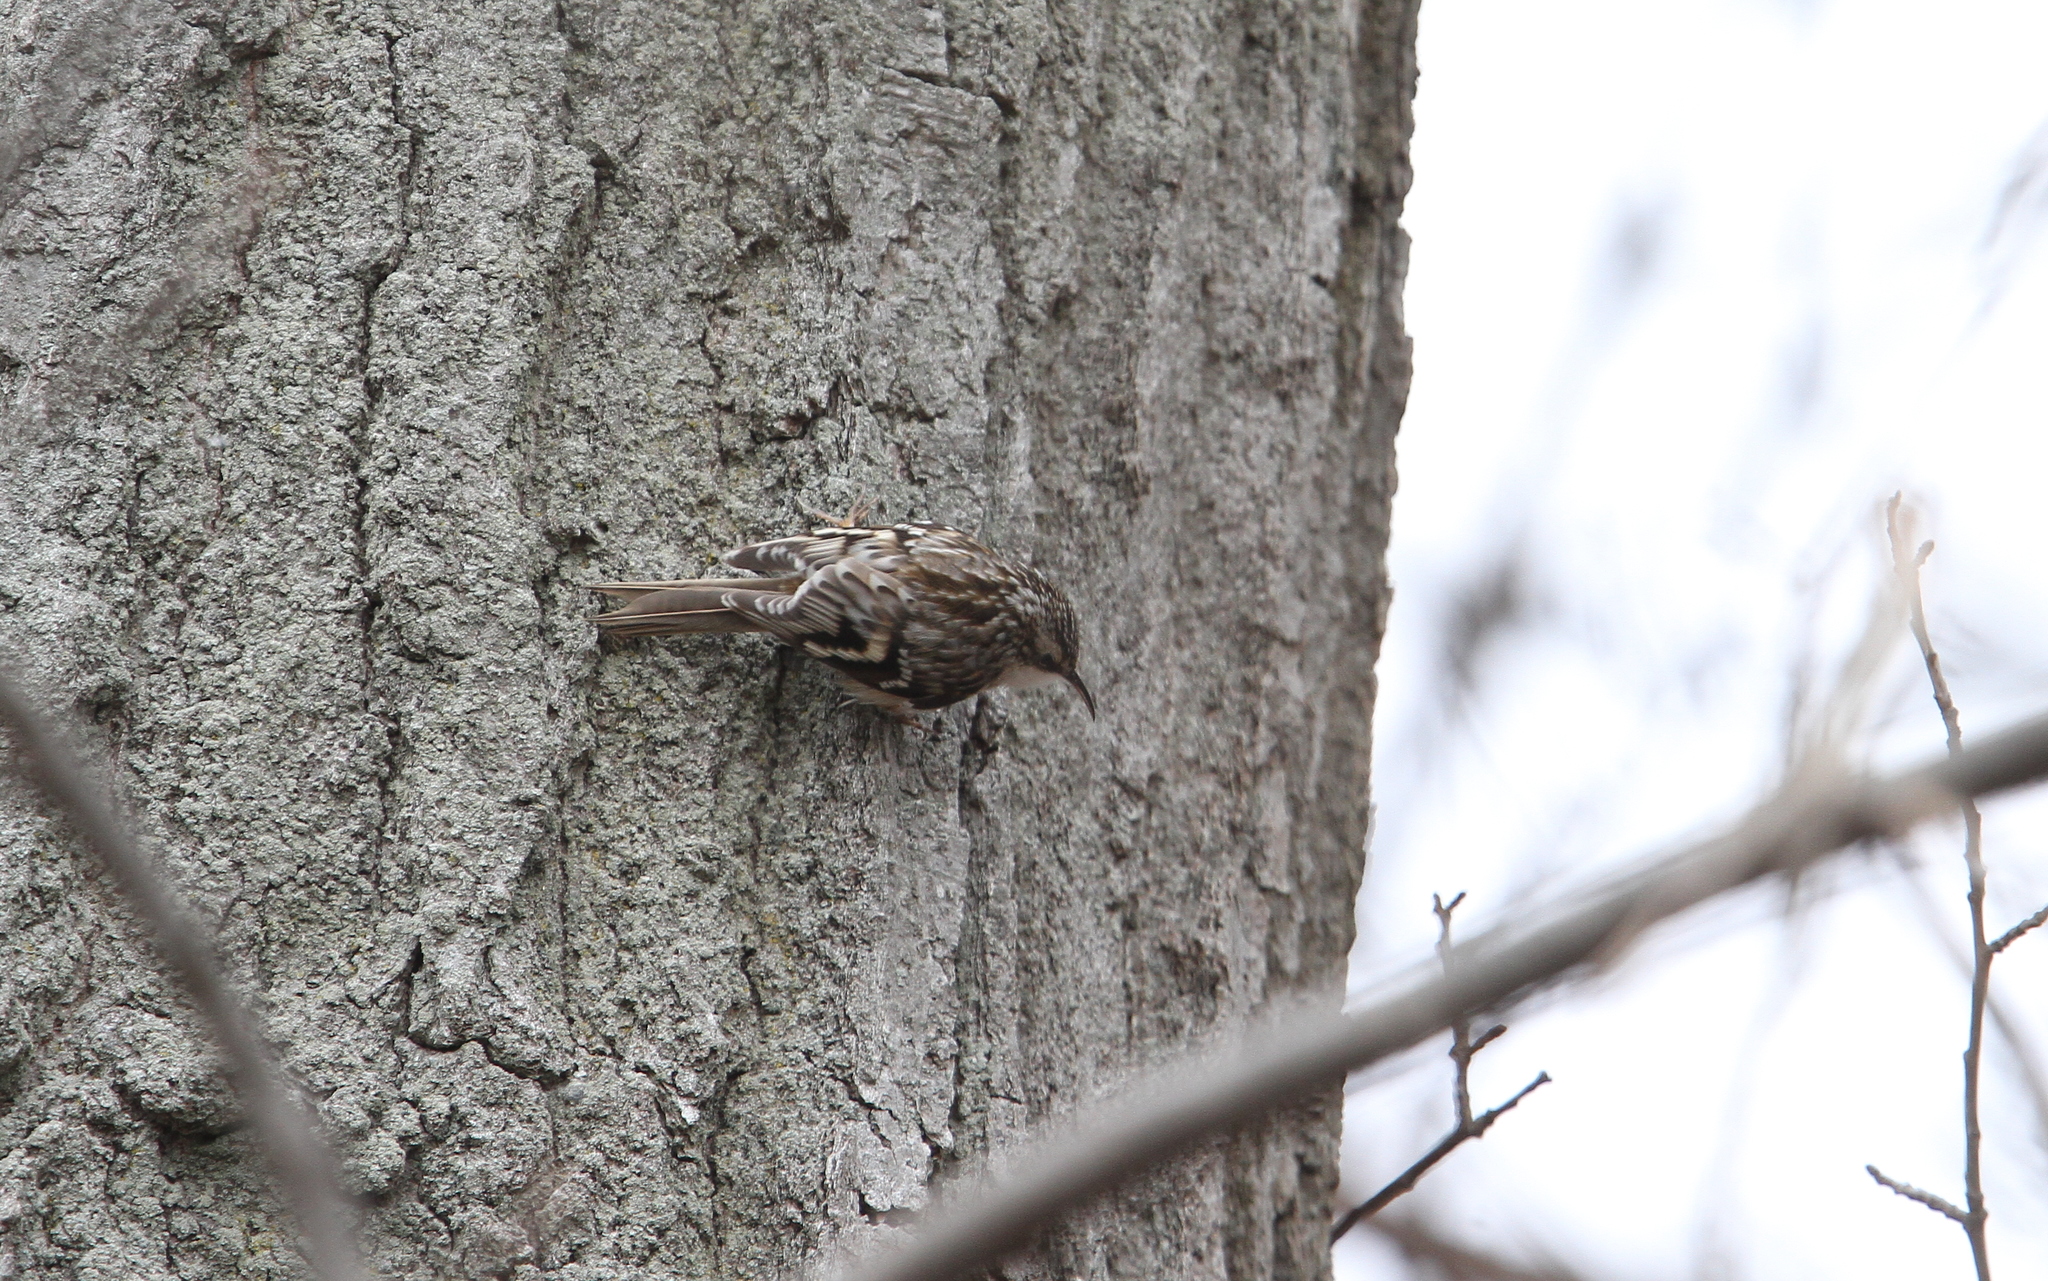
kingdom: Animalia
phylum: Chordata
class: Aves
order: Passeriformes
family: Certhiidae
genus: Certhia
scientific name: Certhia americana
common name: Brown creeper
